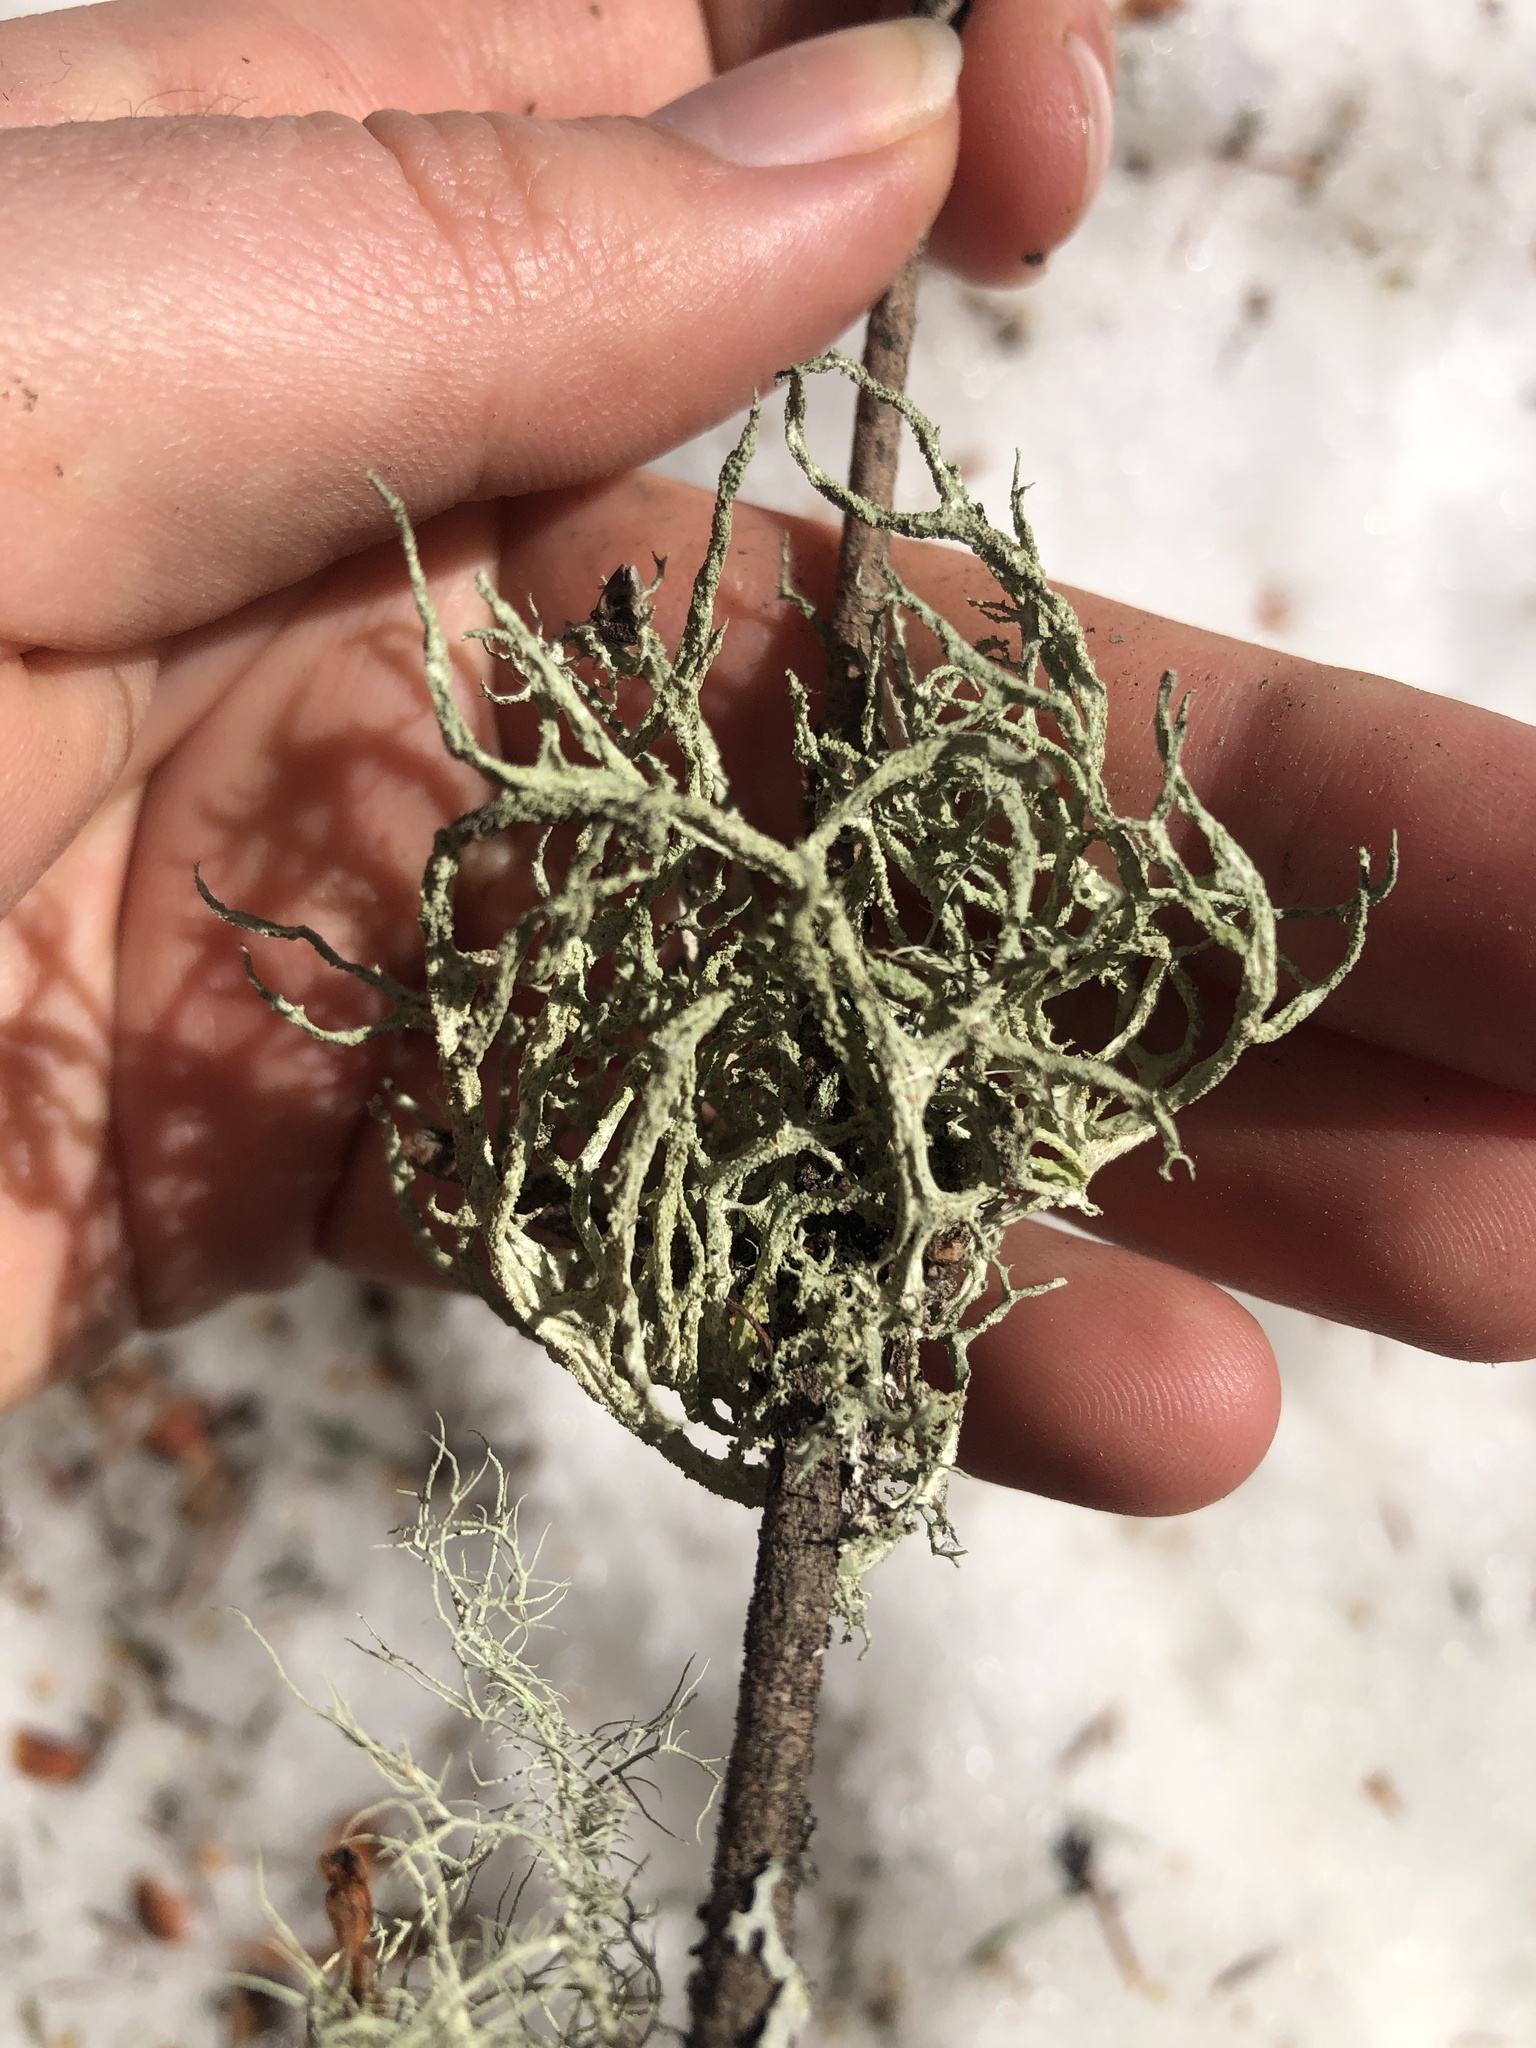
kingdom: Fungi
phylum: Ascomycota
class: Lecanoromycetes
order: Lecanorales
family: Parmeliaceae
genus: Evernia
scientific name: Evernia mesomorpha
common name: Boreal oak moss lichen
